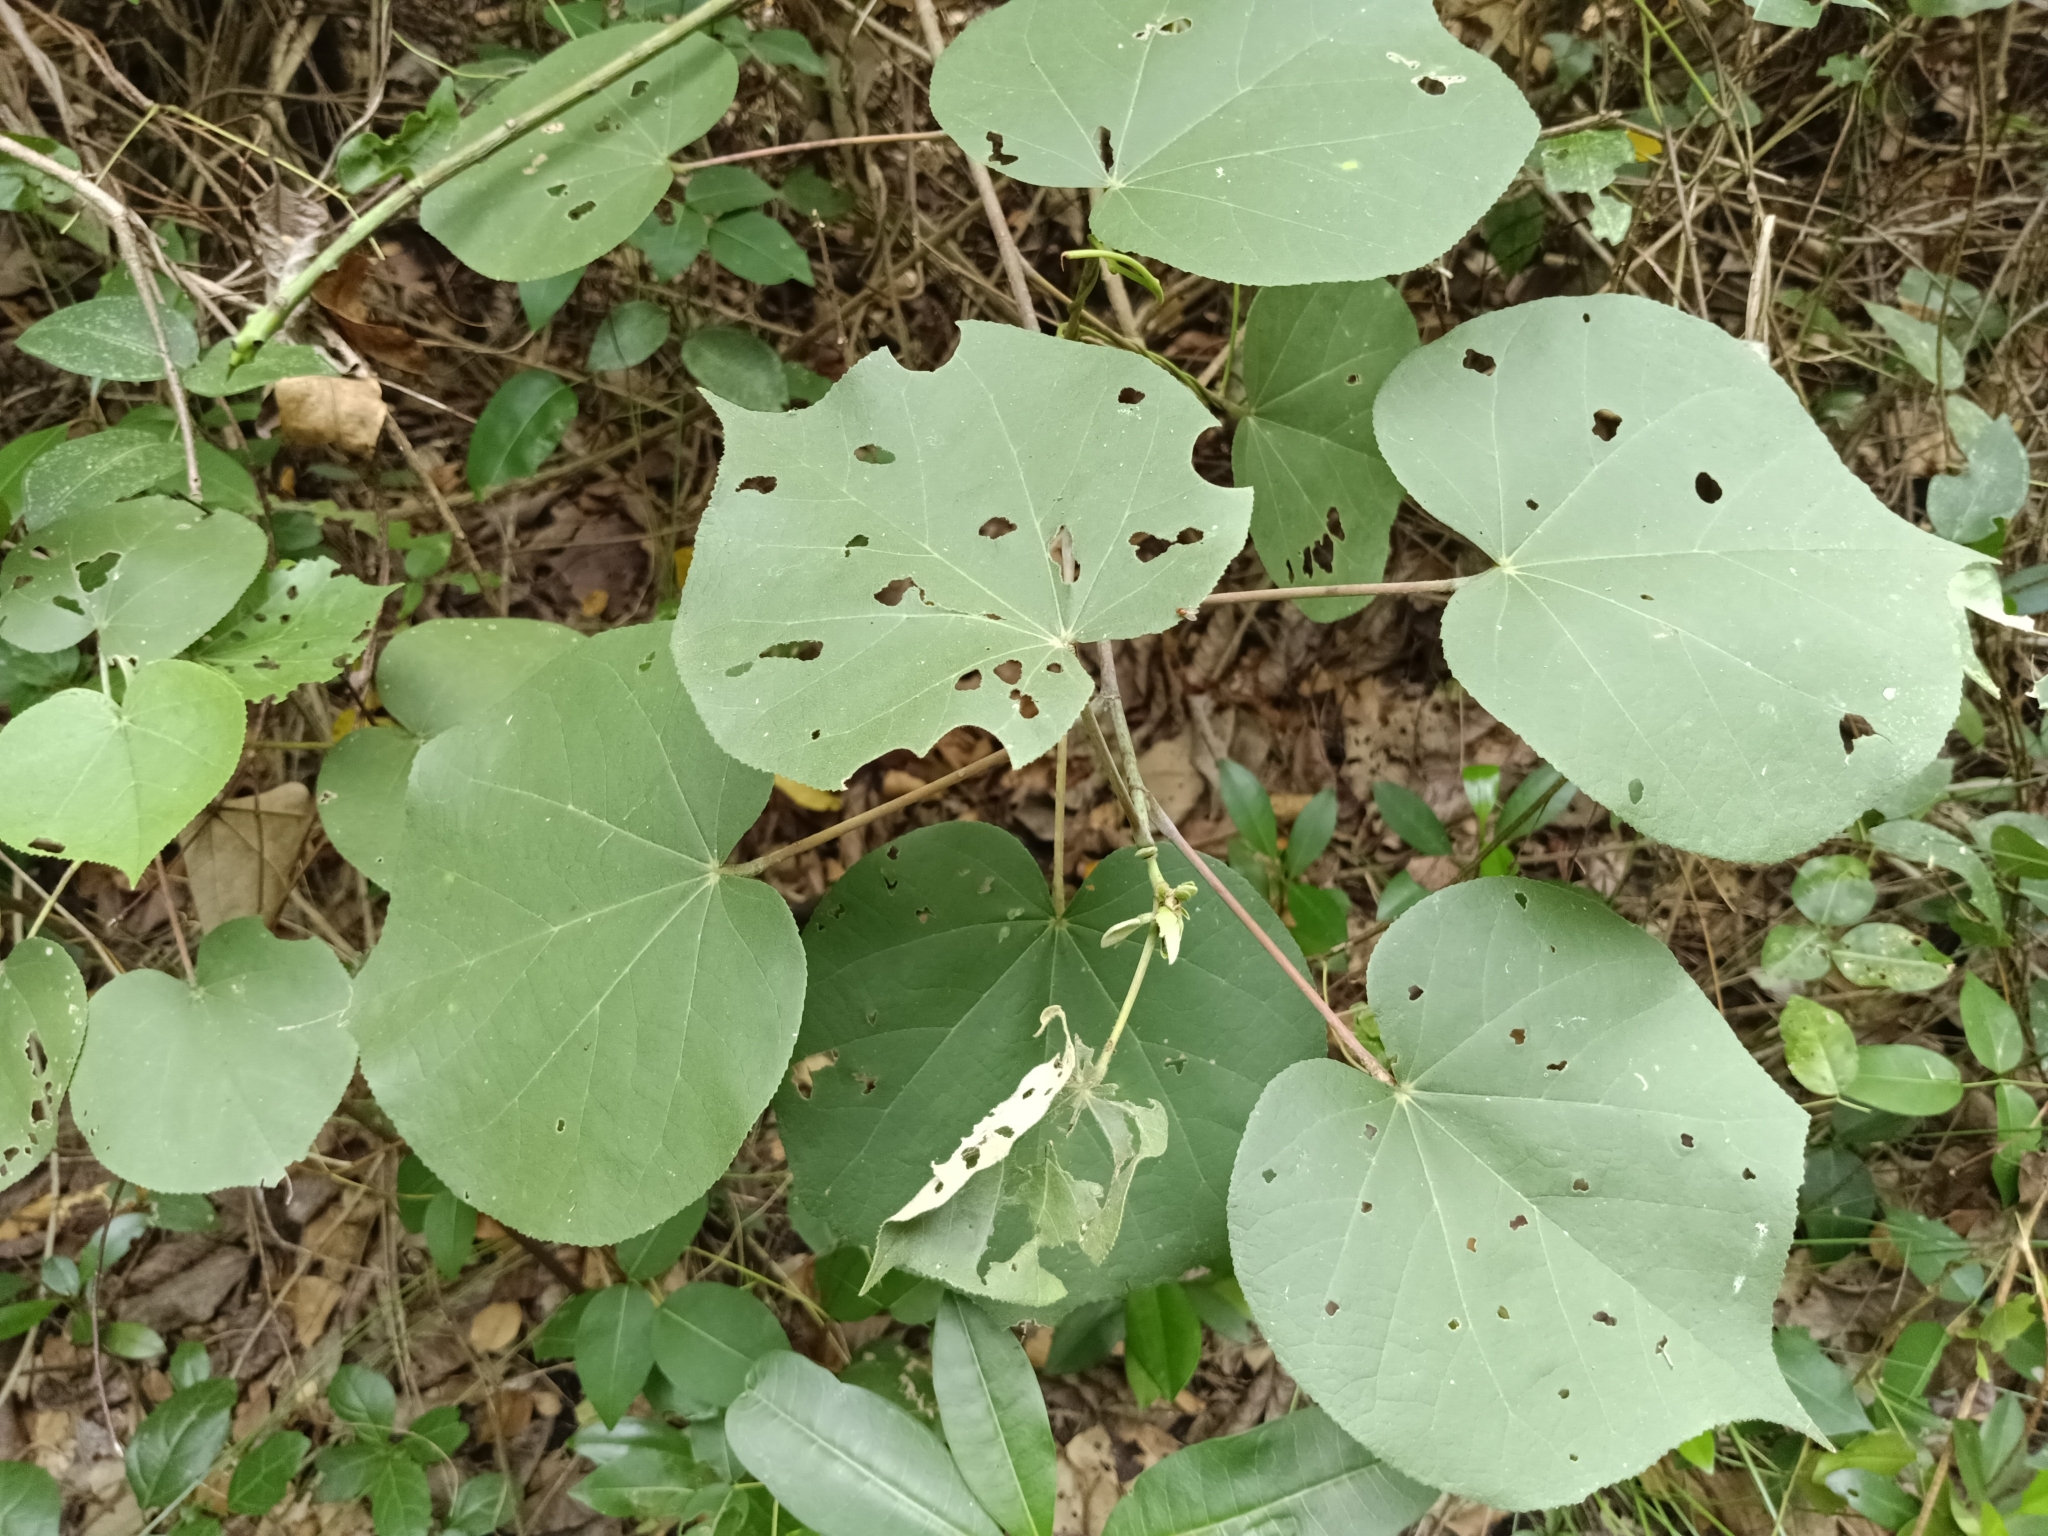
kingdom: Plantae
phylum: Tracheophyta
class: Magnoliopsida
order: Malvales
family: Malvaceae
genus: Talipariti
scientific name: Talipariti tiliaceum
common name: Sea hibiscus
